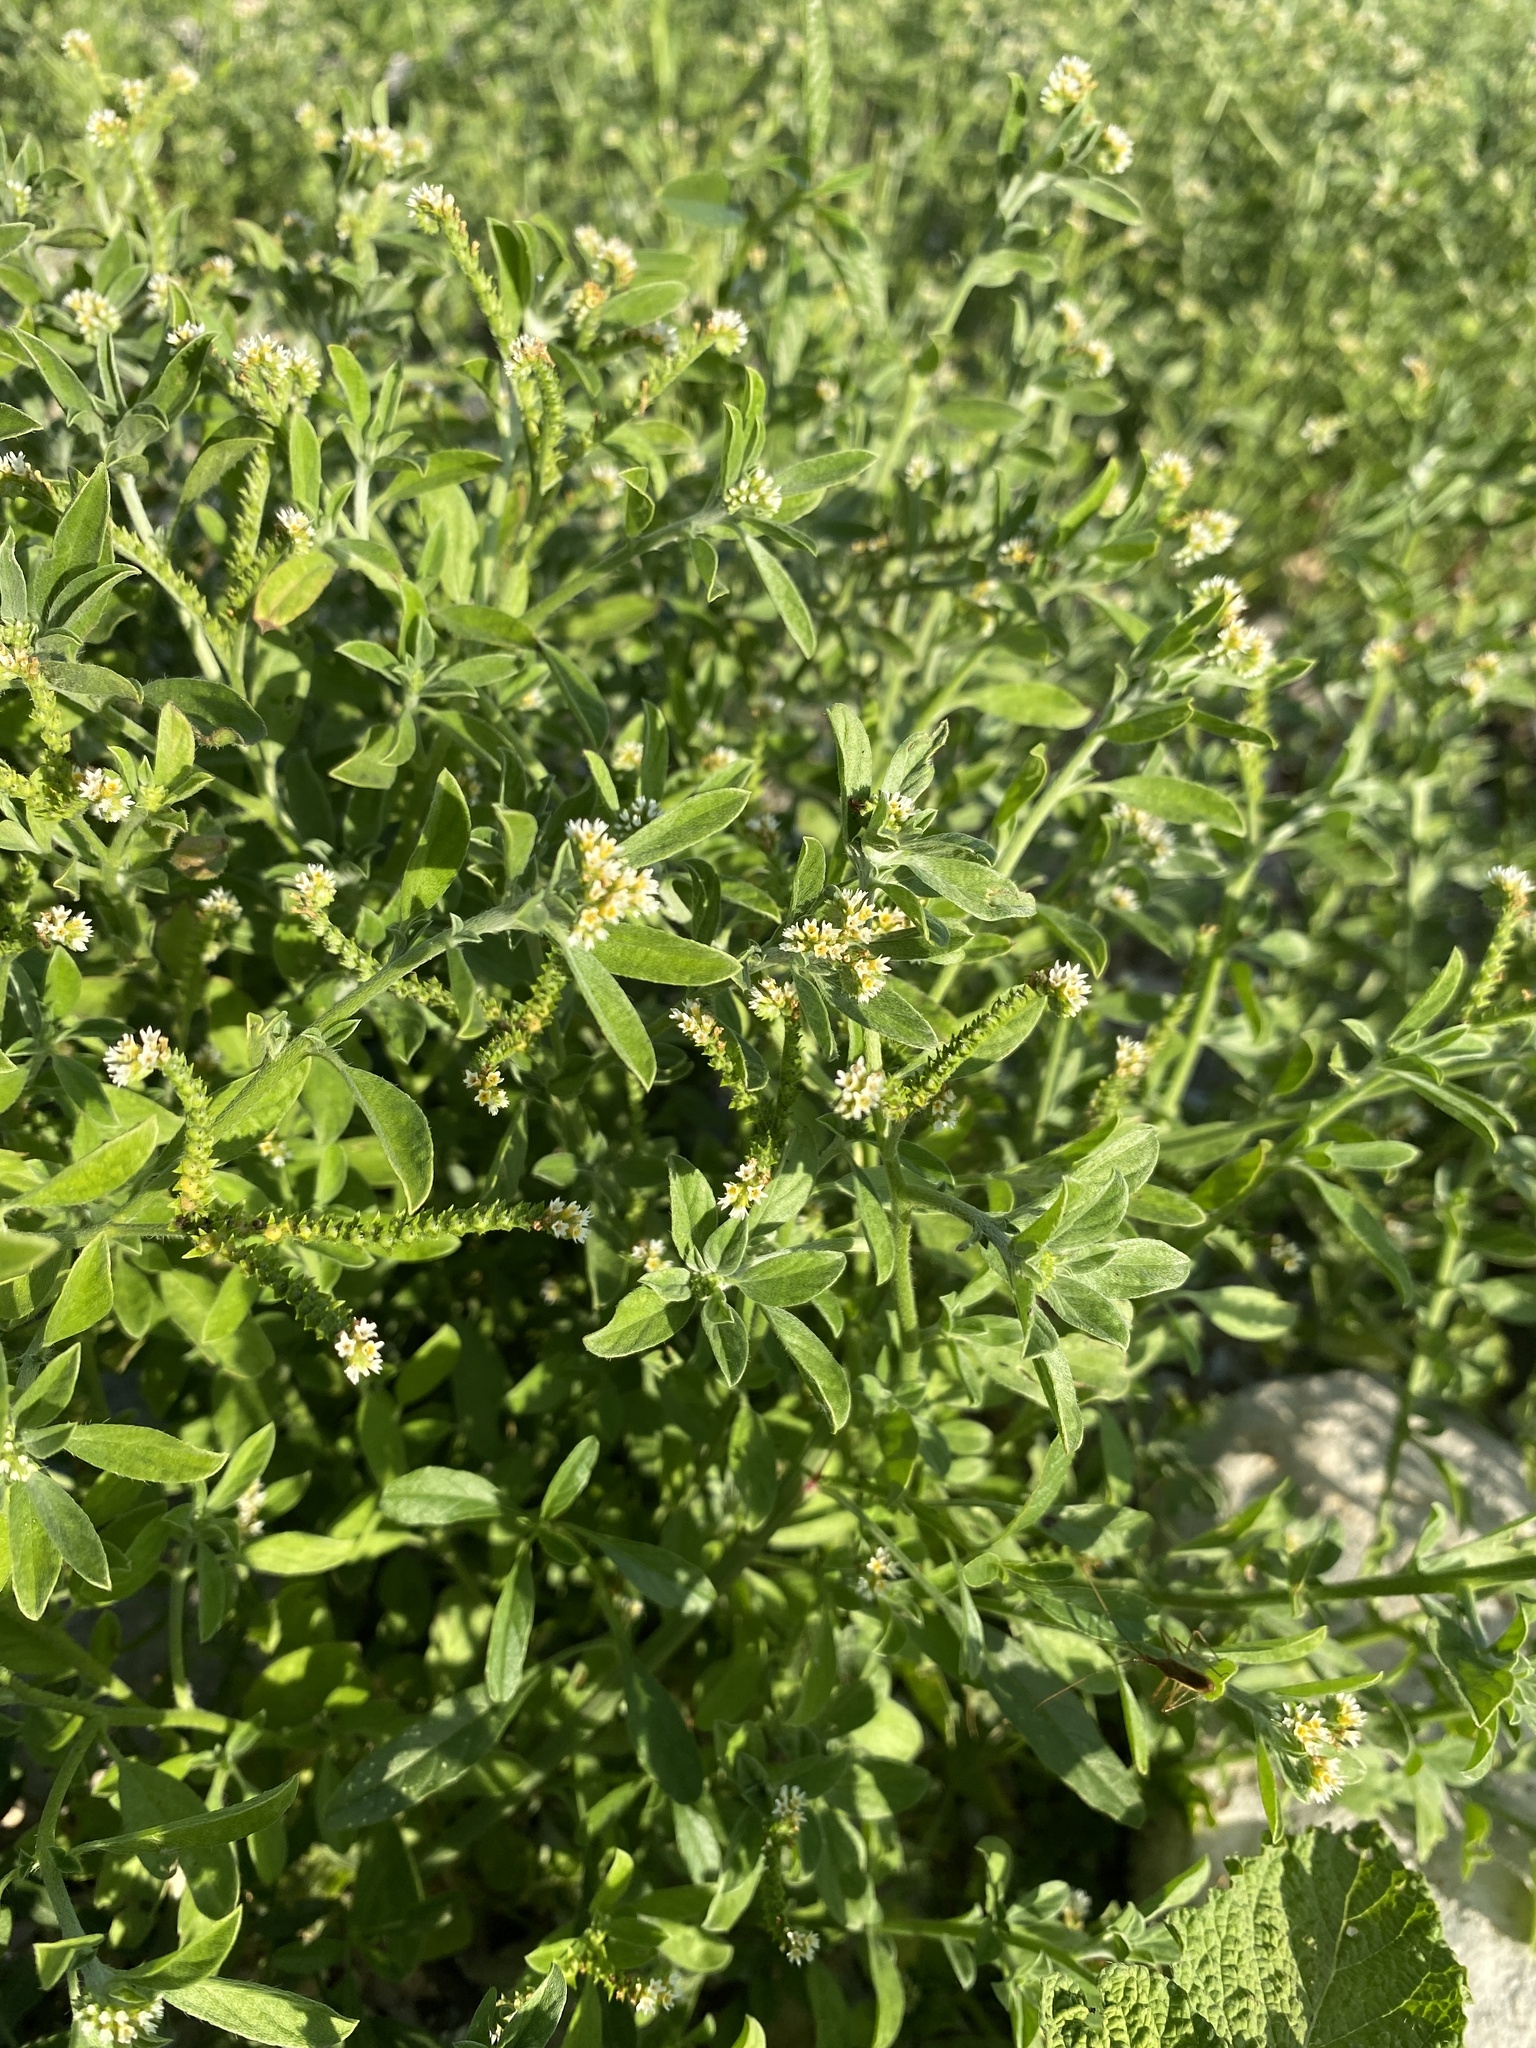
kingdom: Plantae
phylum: Tracheophyta
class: Magnoliopsida
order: Boraginales
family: Heliotropiaceae
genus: Euploca
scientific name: Euploca procumbens
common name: Fourspike heliotrope
